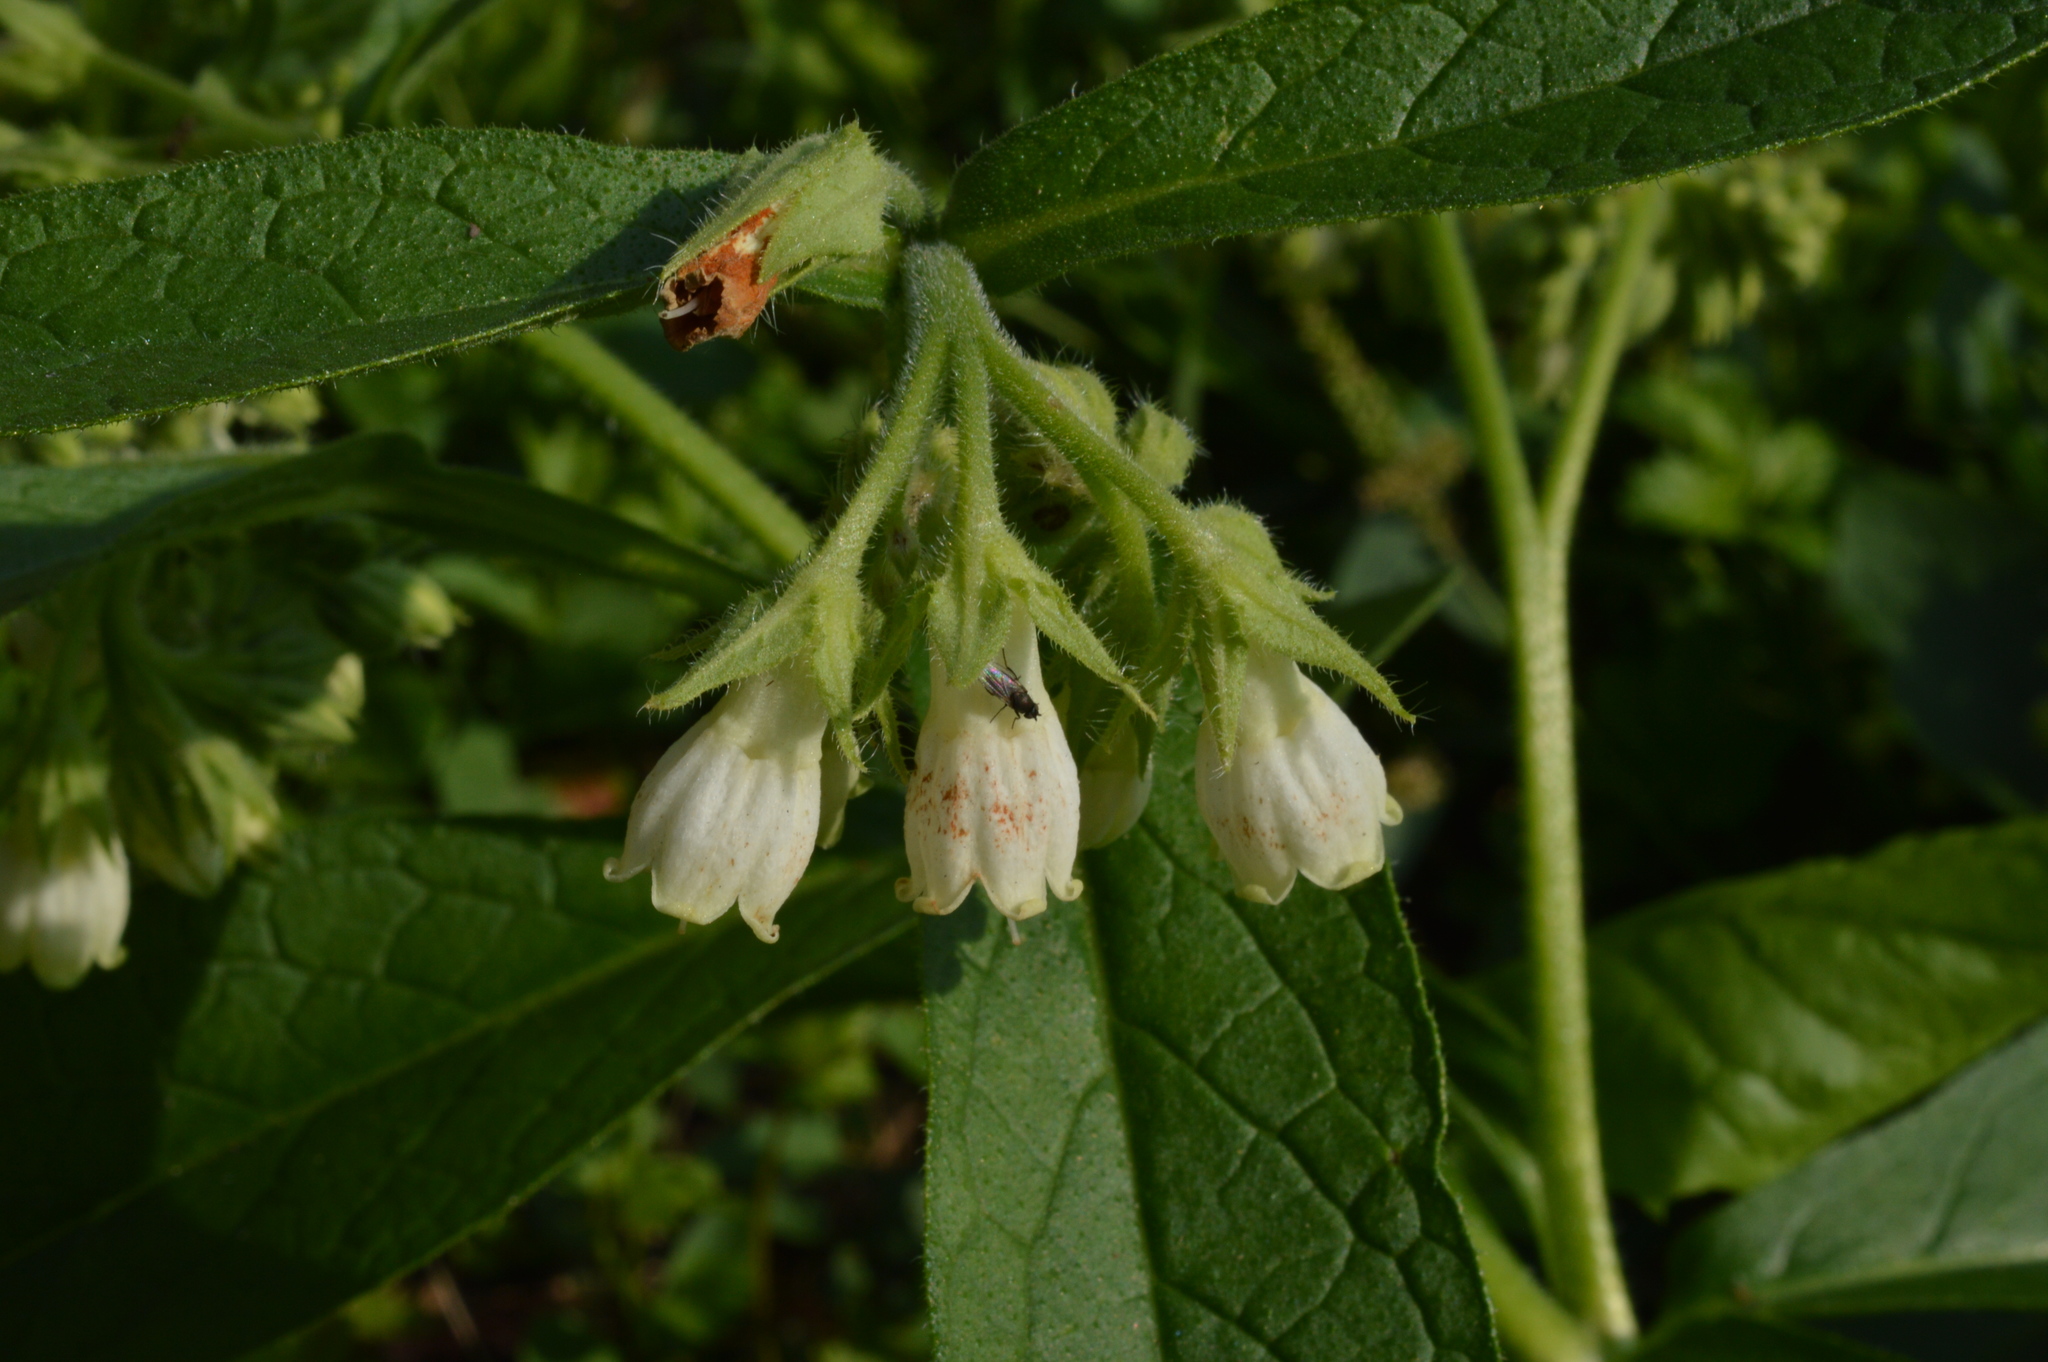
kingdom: Plantae
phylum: Tracheophyta
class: Magnoliopsida
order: Boraginales
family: Boraginaceae
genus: Symphytum
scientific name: Symphytum officinale
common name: Common comfrey
